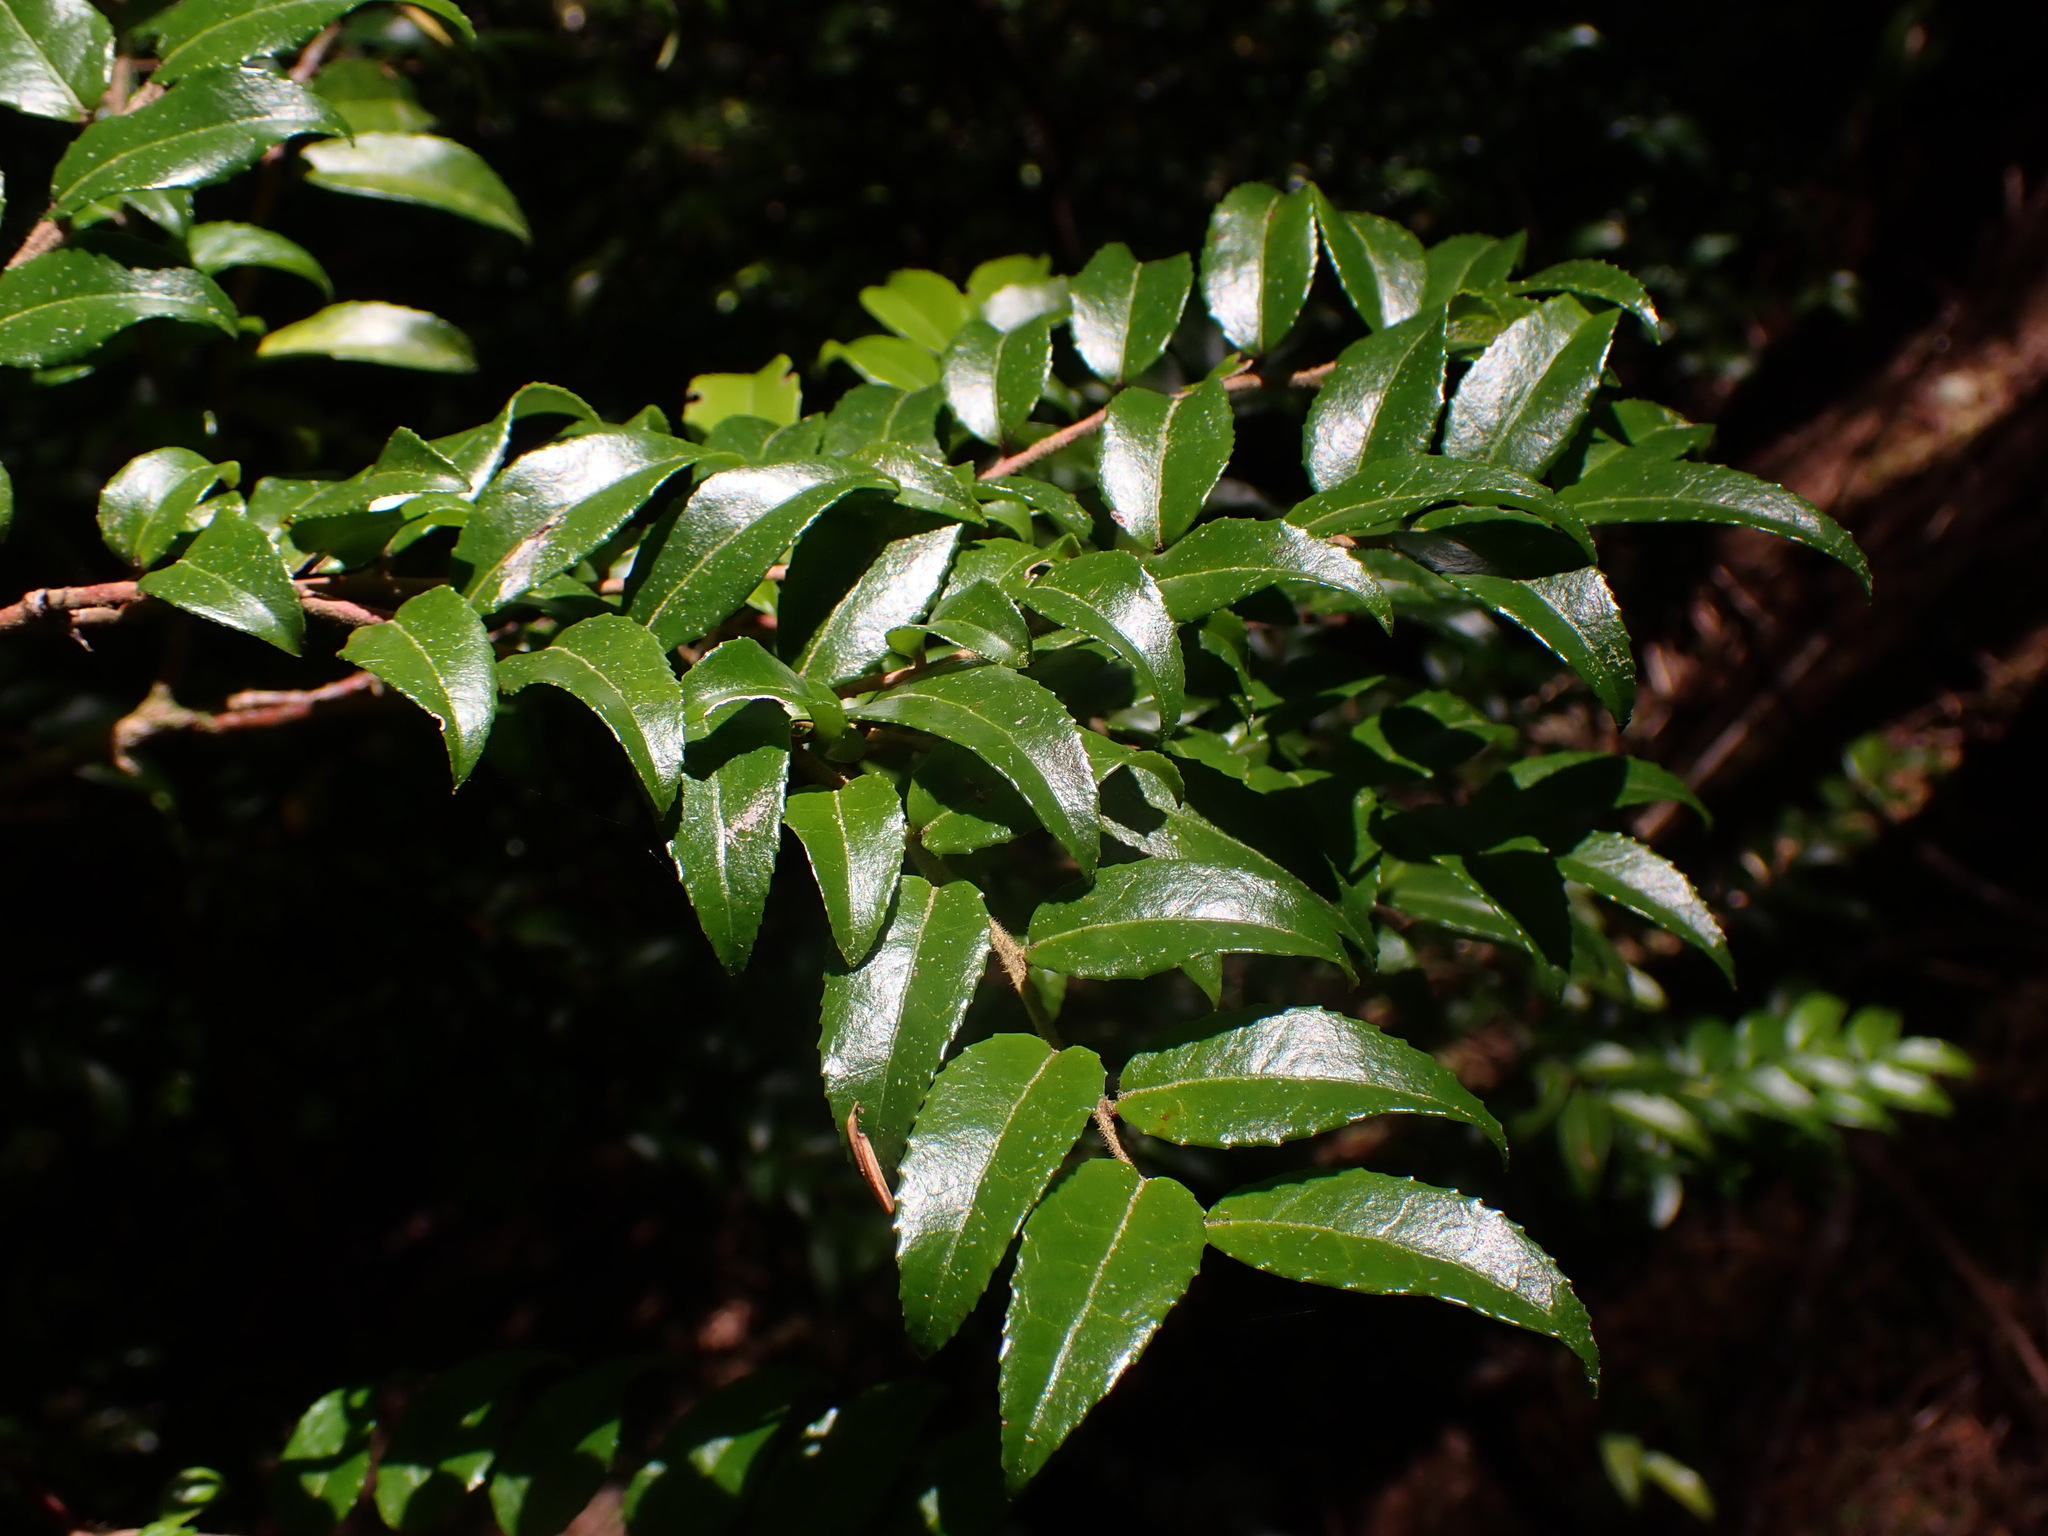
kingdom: Plantae
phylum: Tracheophyta
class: Magnoliopsida
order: Ericales
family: Ericaceae
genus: Vaccinium
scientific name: Vaccinium ovatum
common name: California-huckleberry
